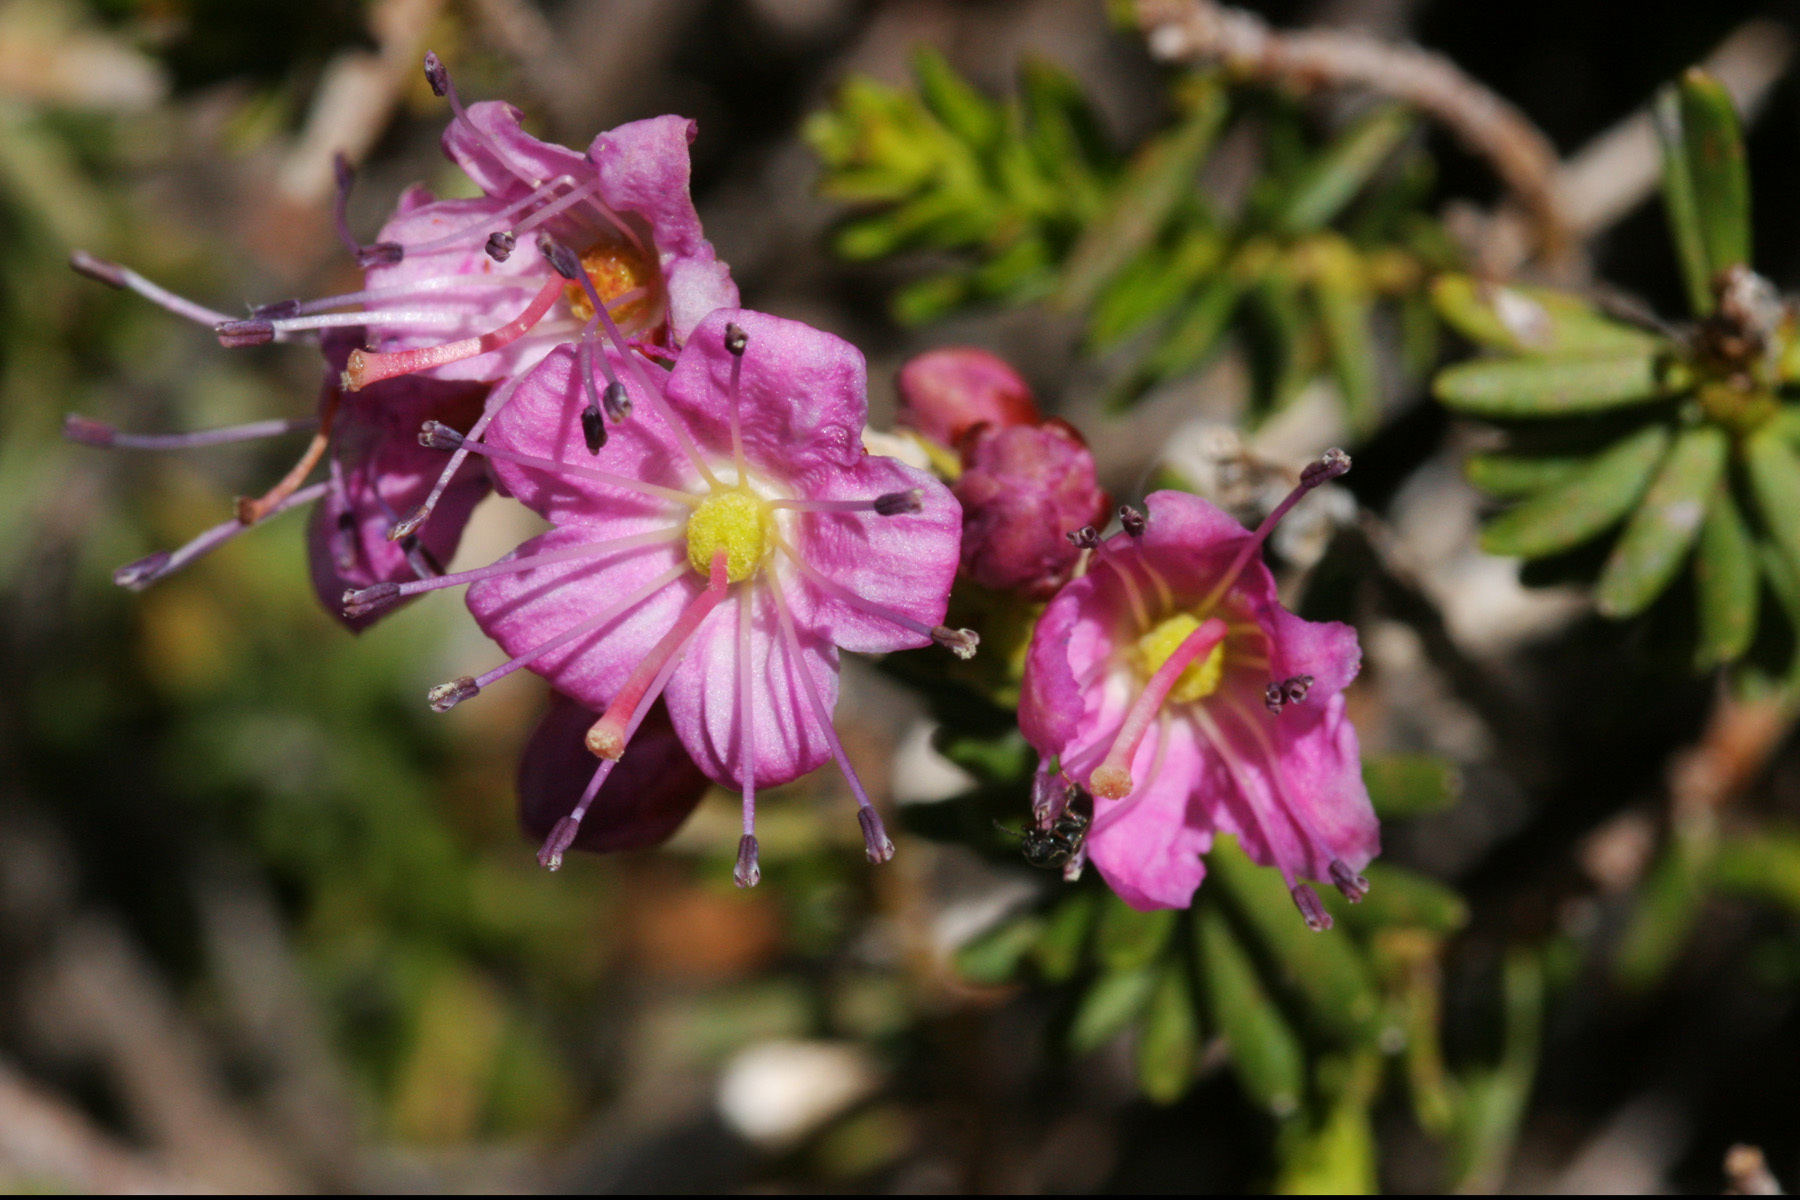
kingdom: Plantae
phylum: Tracheophyta
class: Magnoliopsida
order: Ericales
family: Ericaceae
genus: Phyllodoce
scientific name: Phyllodoce breweri
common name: Brewer's mountain-heather
